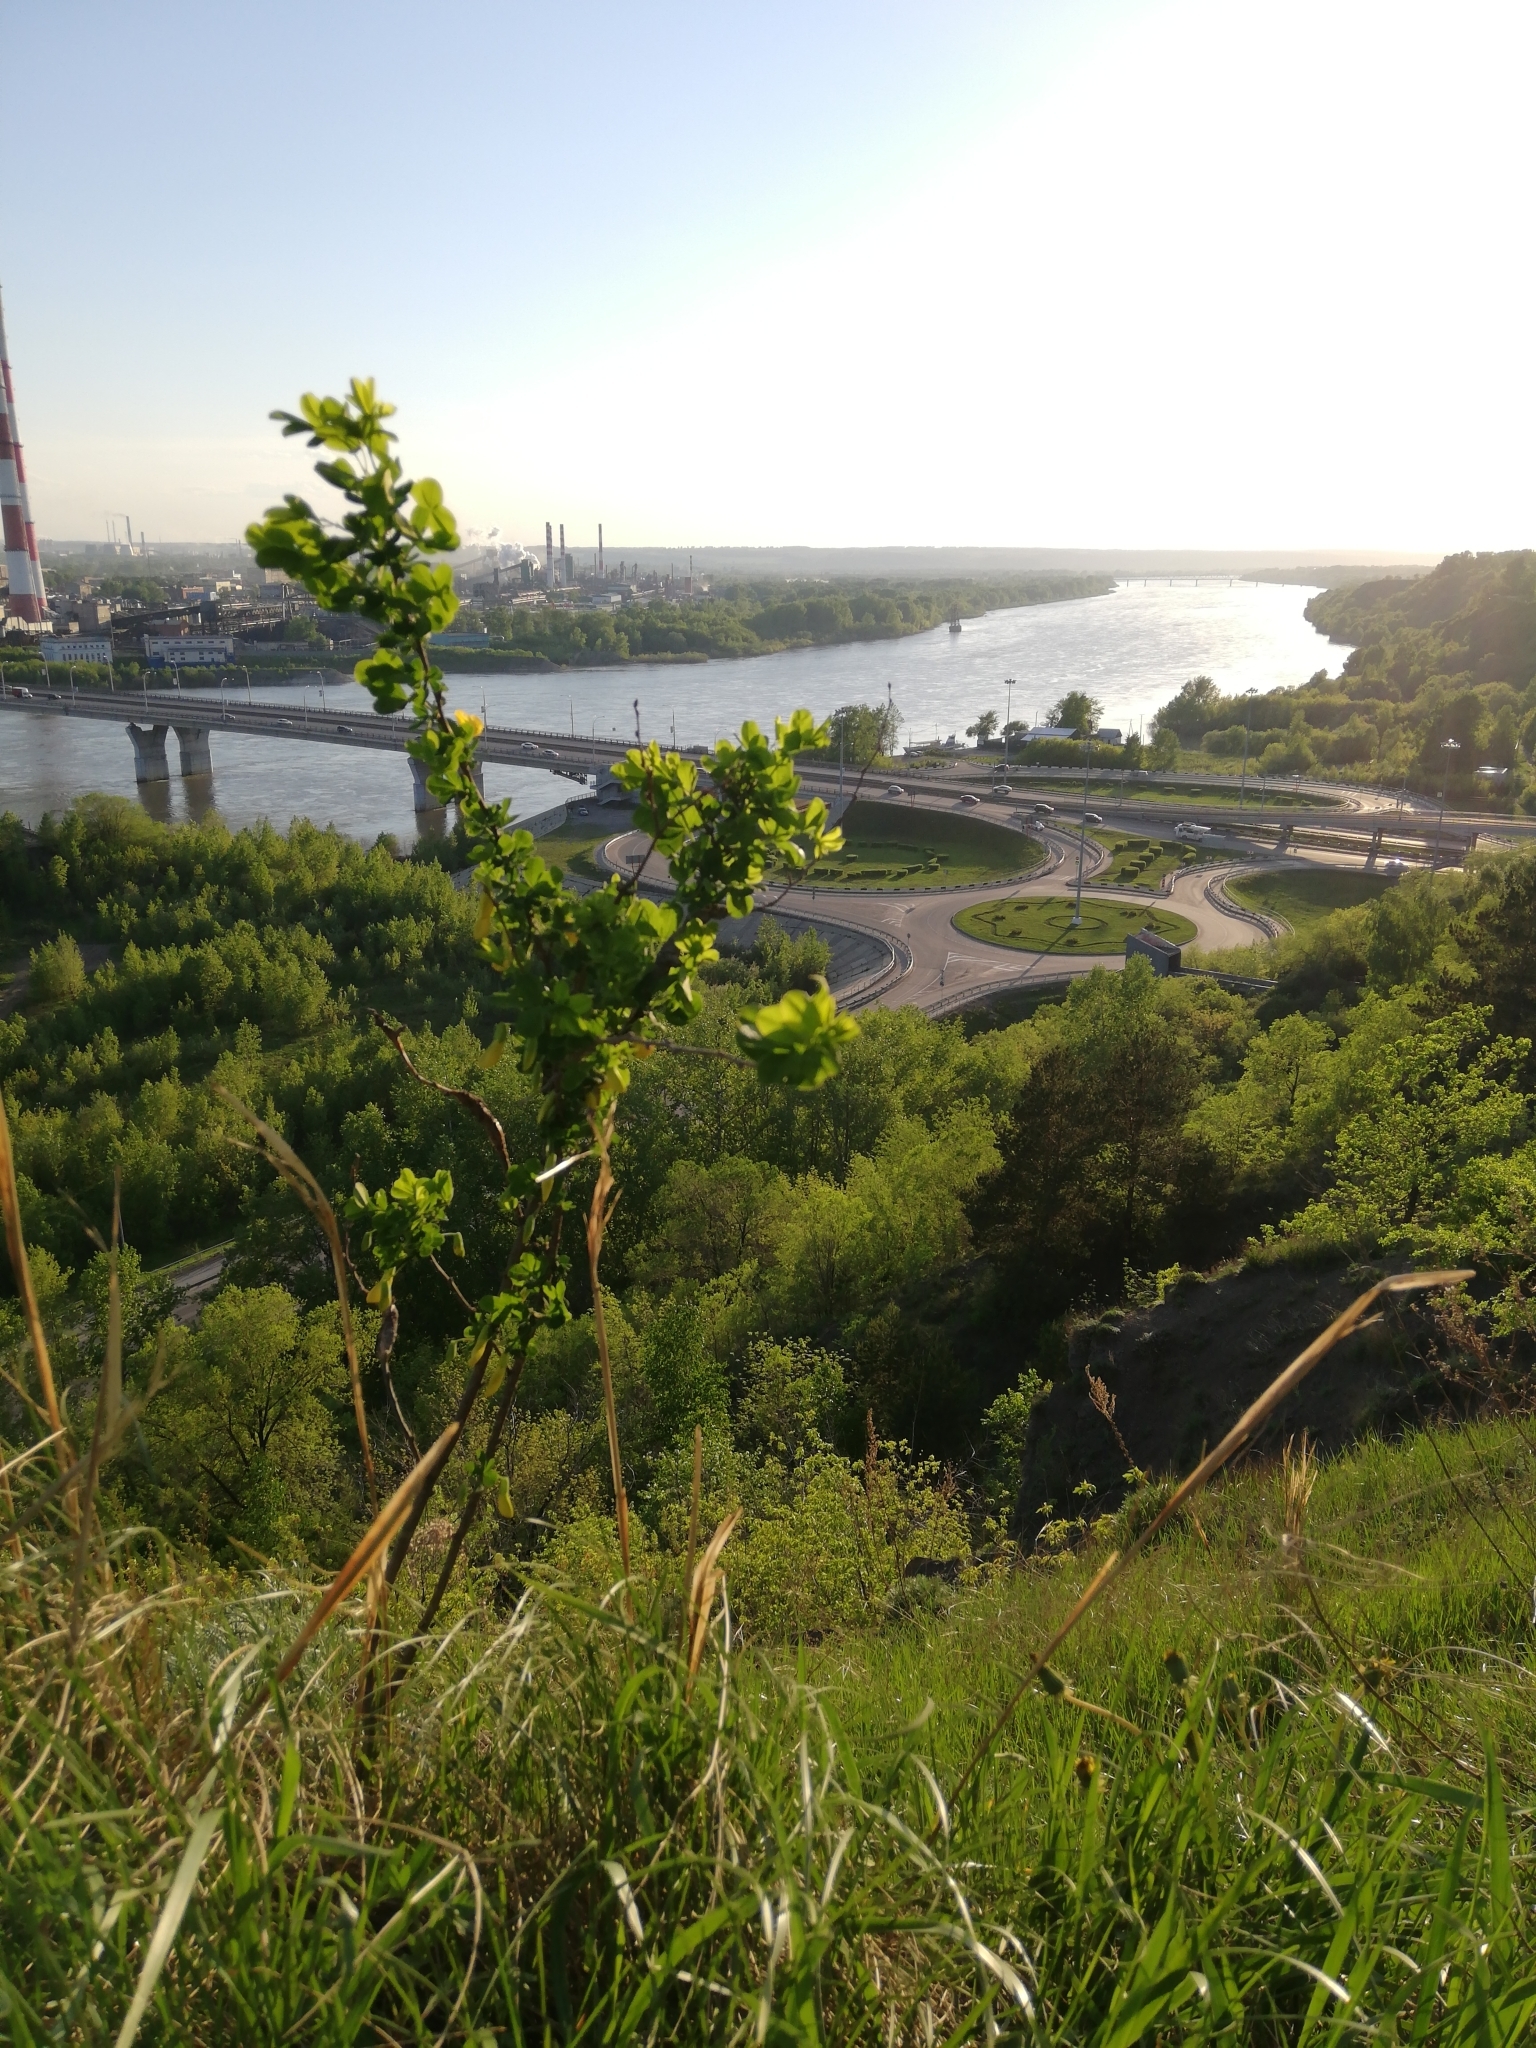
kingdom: Plantae
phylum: Tracheophyta
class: Magnoliopsida
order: Fabales
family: Fabaceae
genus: Caragana
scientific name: Caragana frutex
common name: Russian peashrub
